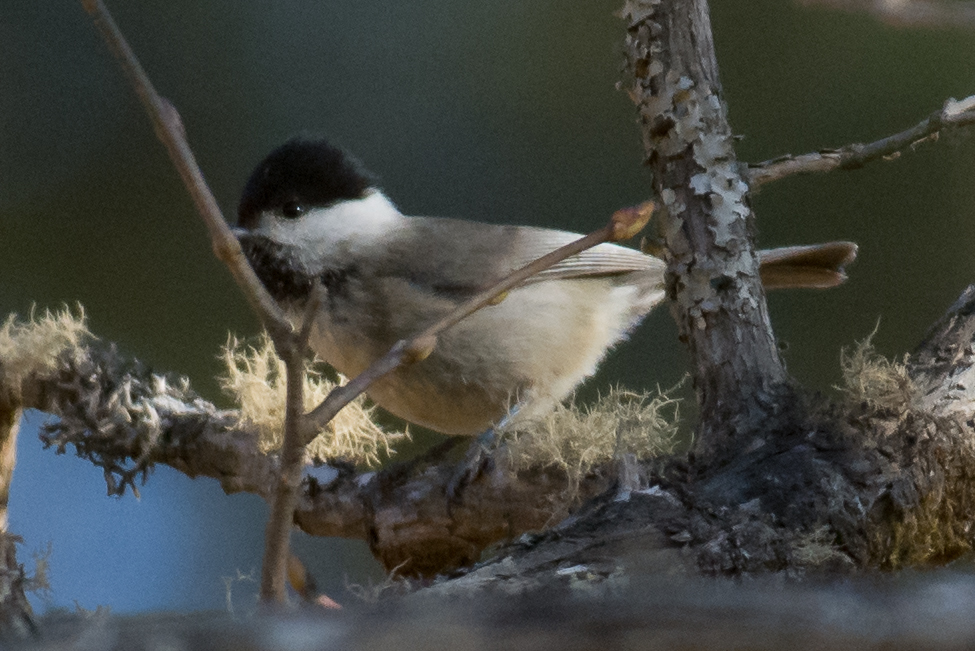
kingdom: Animalia
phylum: Chordata
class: Aves
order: Passeriformes
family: Paridae
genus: Poecile
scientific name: Poecile hypermelaenus
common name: Black-bibbed tit
